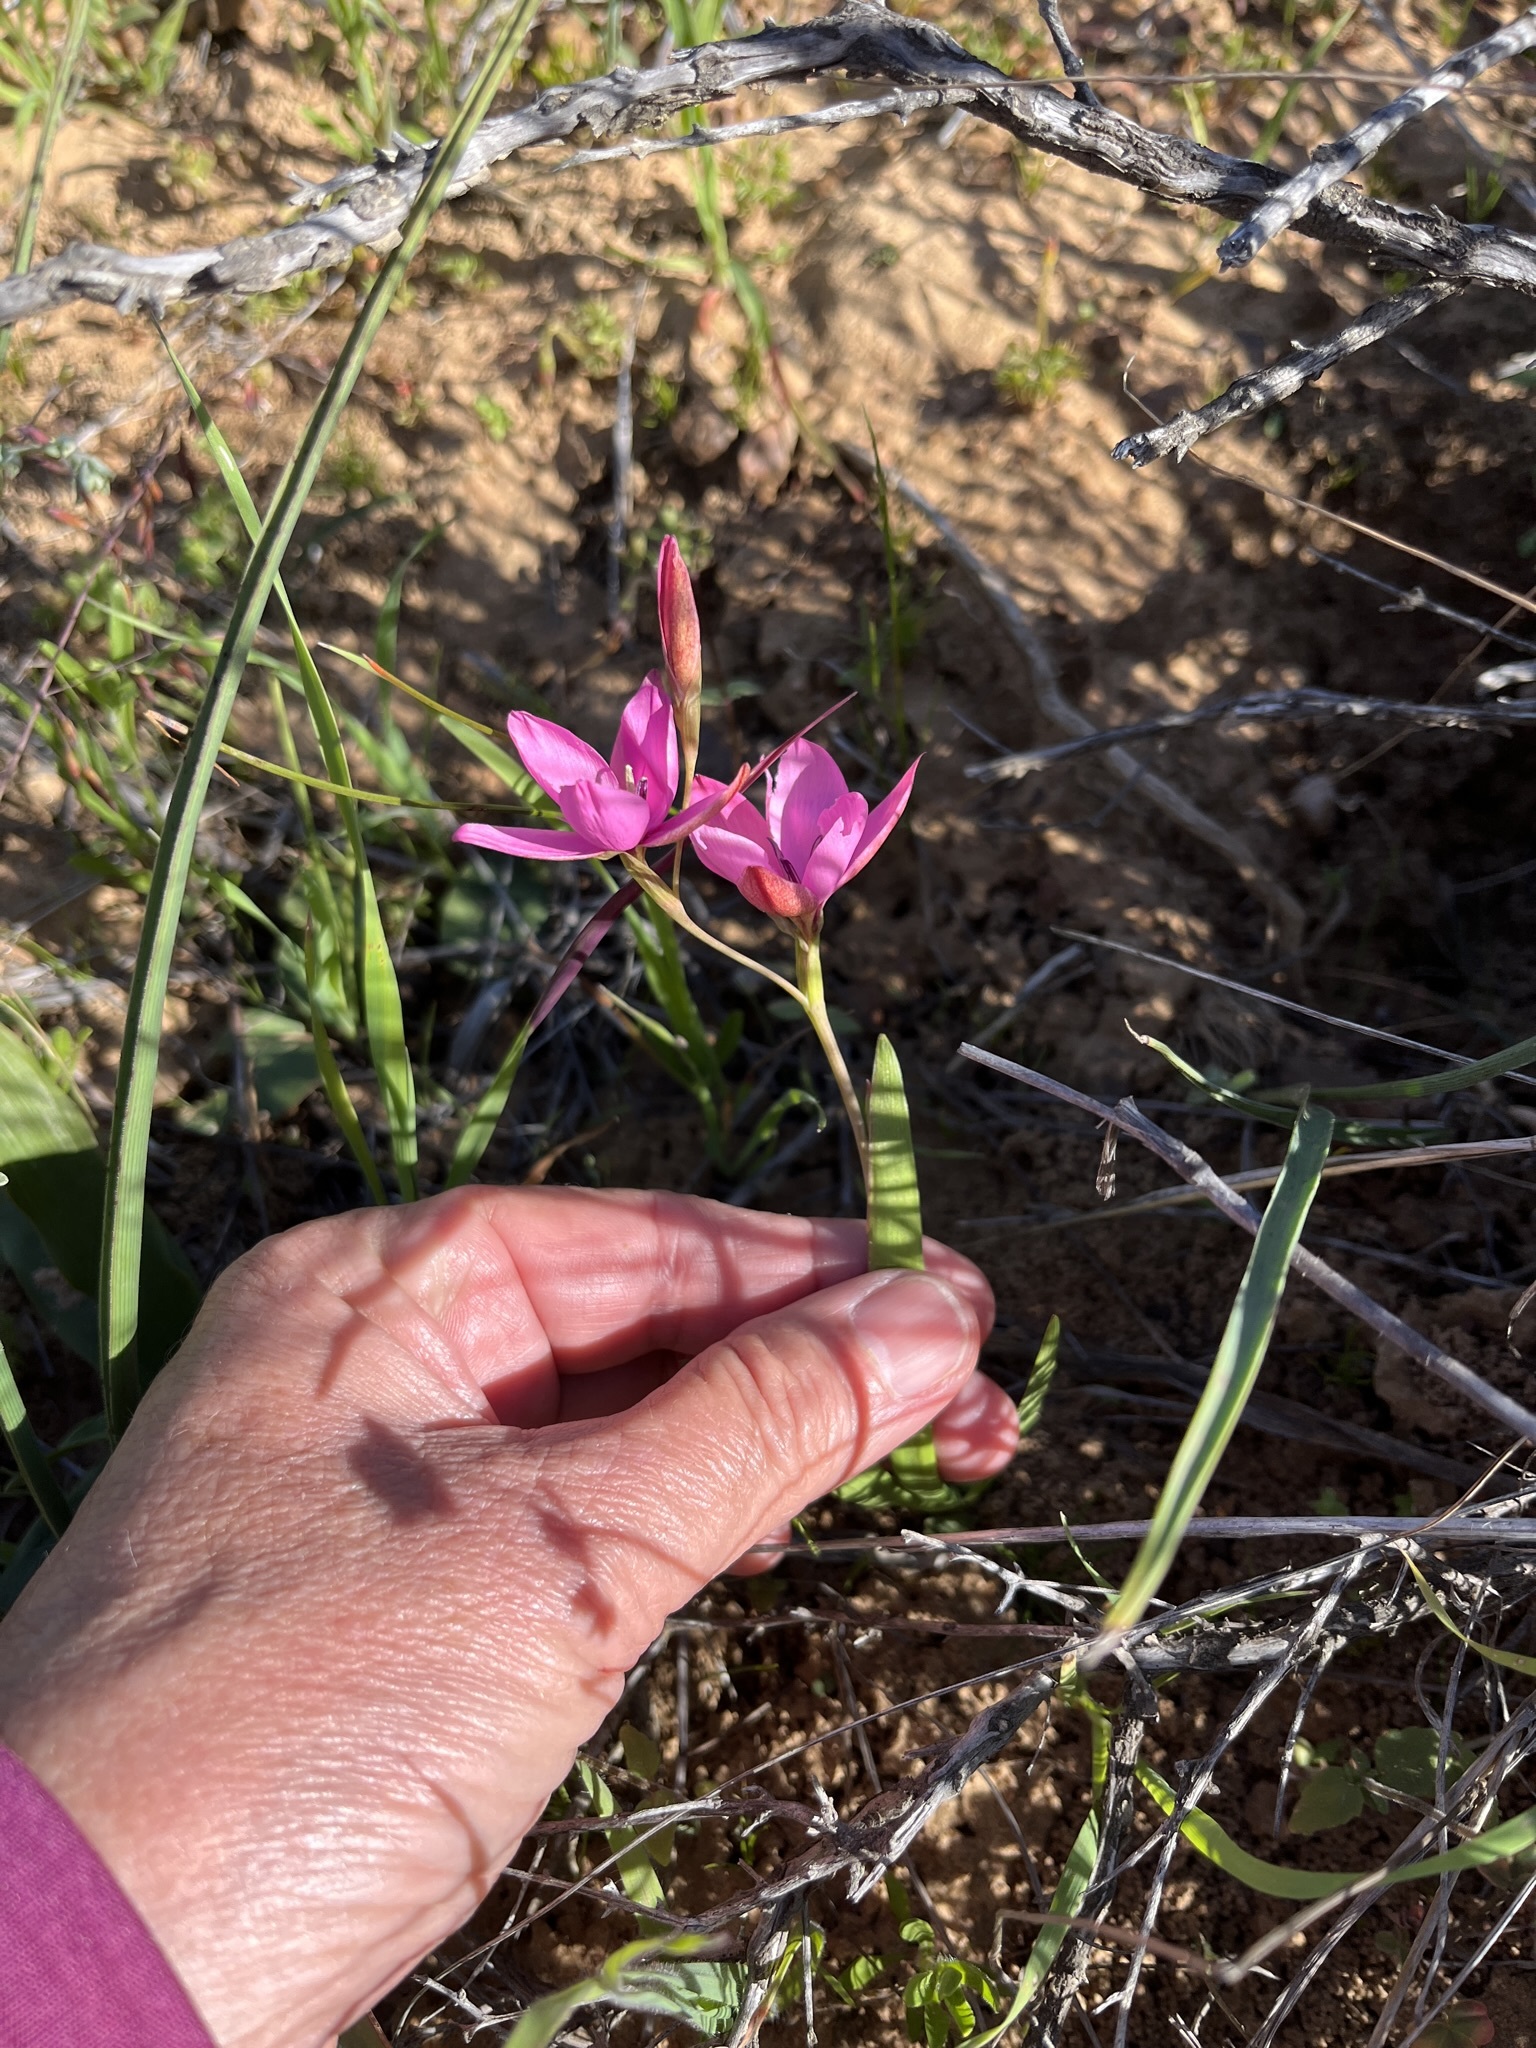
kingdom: Plantae
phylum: Tracheophyta
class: Liliopsida
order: Asparagales
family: Iridaceae
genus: Hesperantha
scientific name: Hesperantha pauciflora
